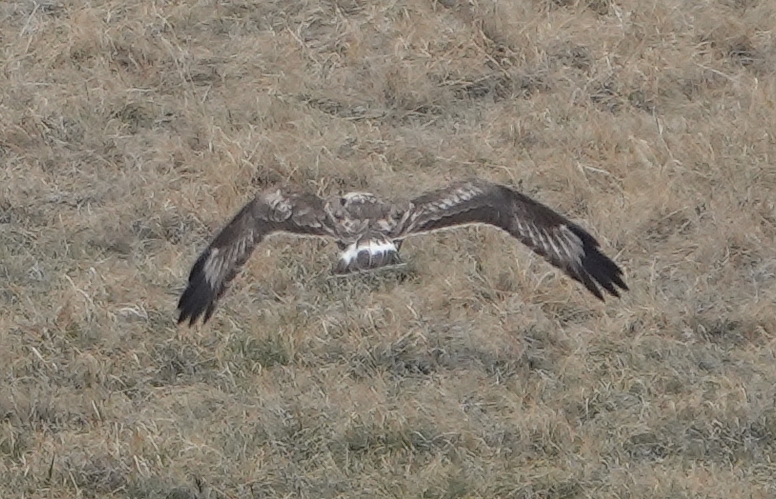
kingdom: Animalia
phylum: Chordata
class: Aves
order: Accipitriformes
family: Accipitridae
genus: Buteo
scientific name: Buteo lagopus
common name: Rough-legged buzzard
